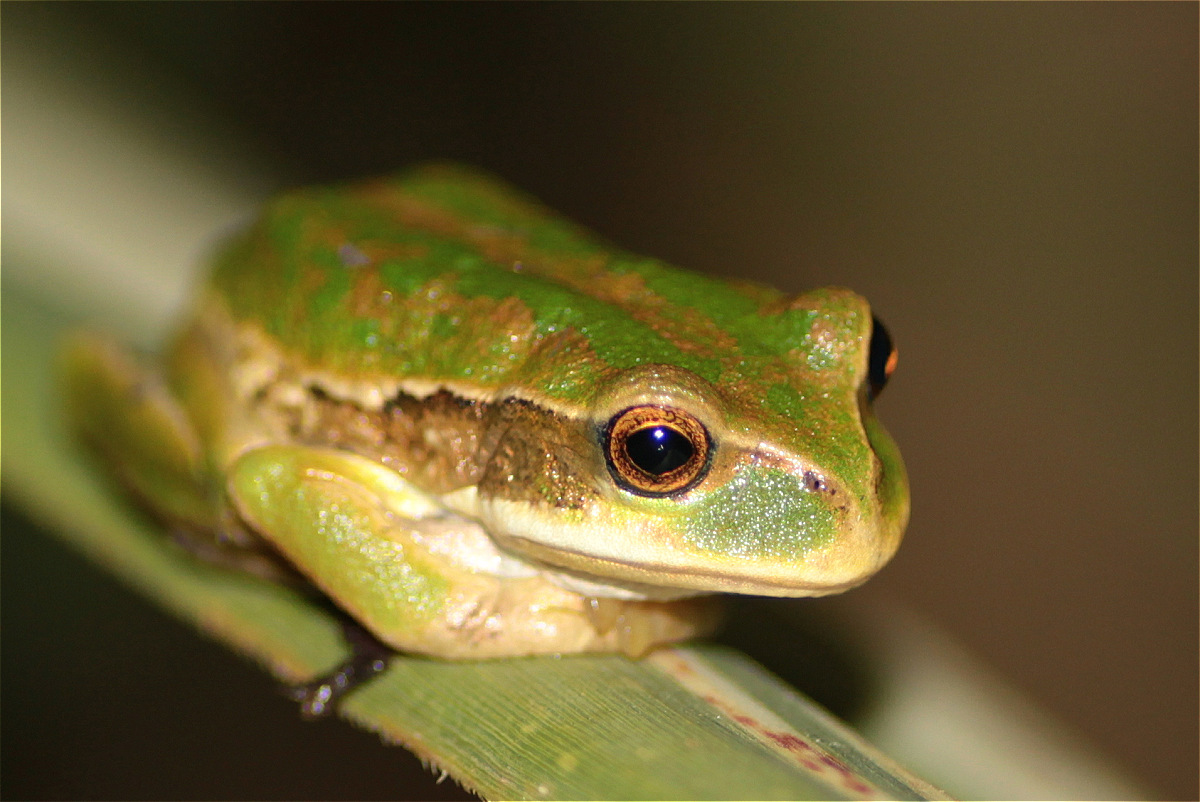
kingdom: Animalia
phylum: Chordata
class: Amphibia
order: Anura
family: Hemiphractidae
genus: Gastrotheca
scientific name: Gastrotheca cuencana
